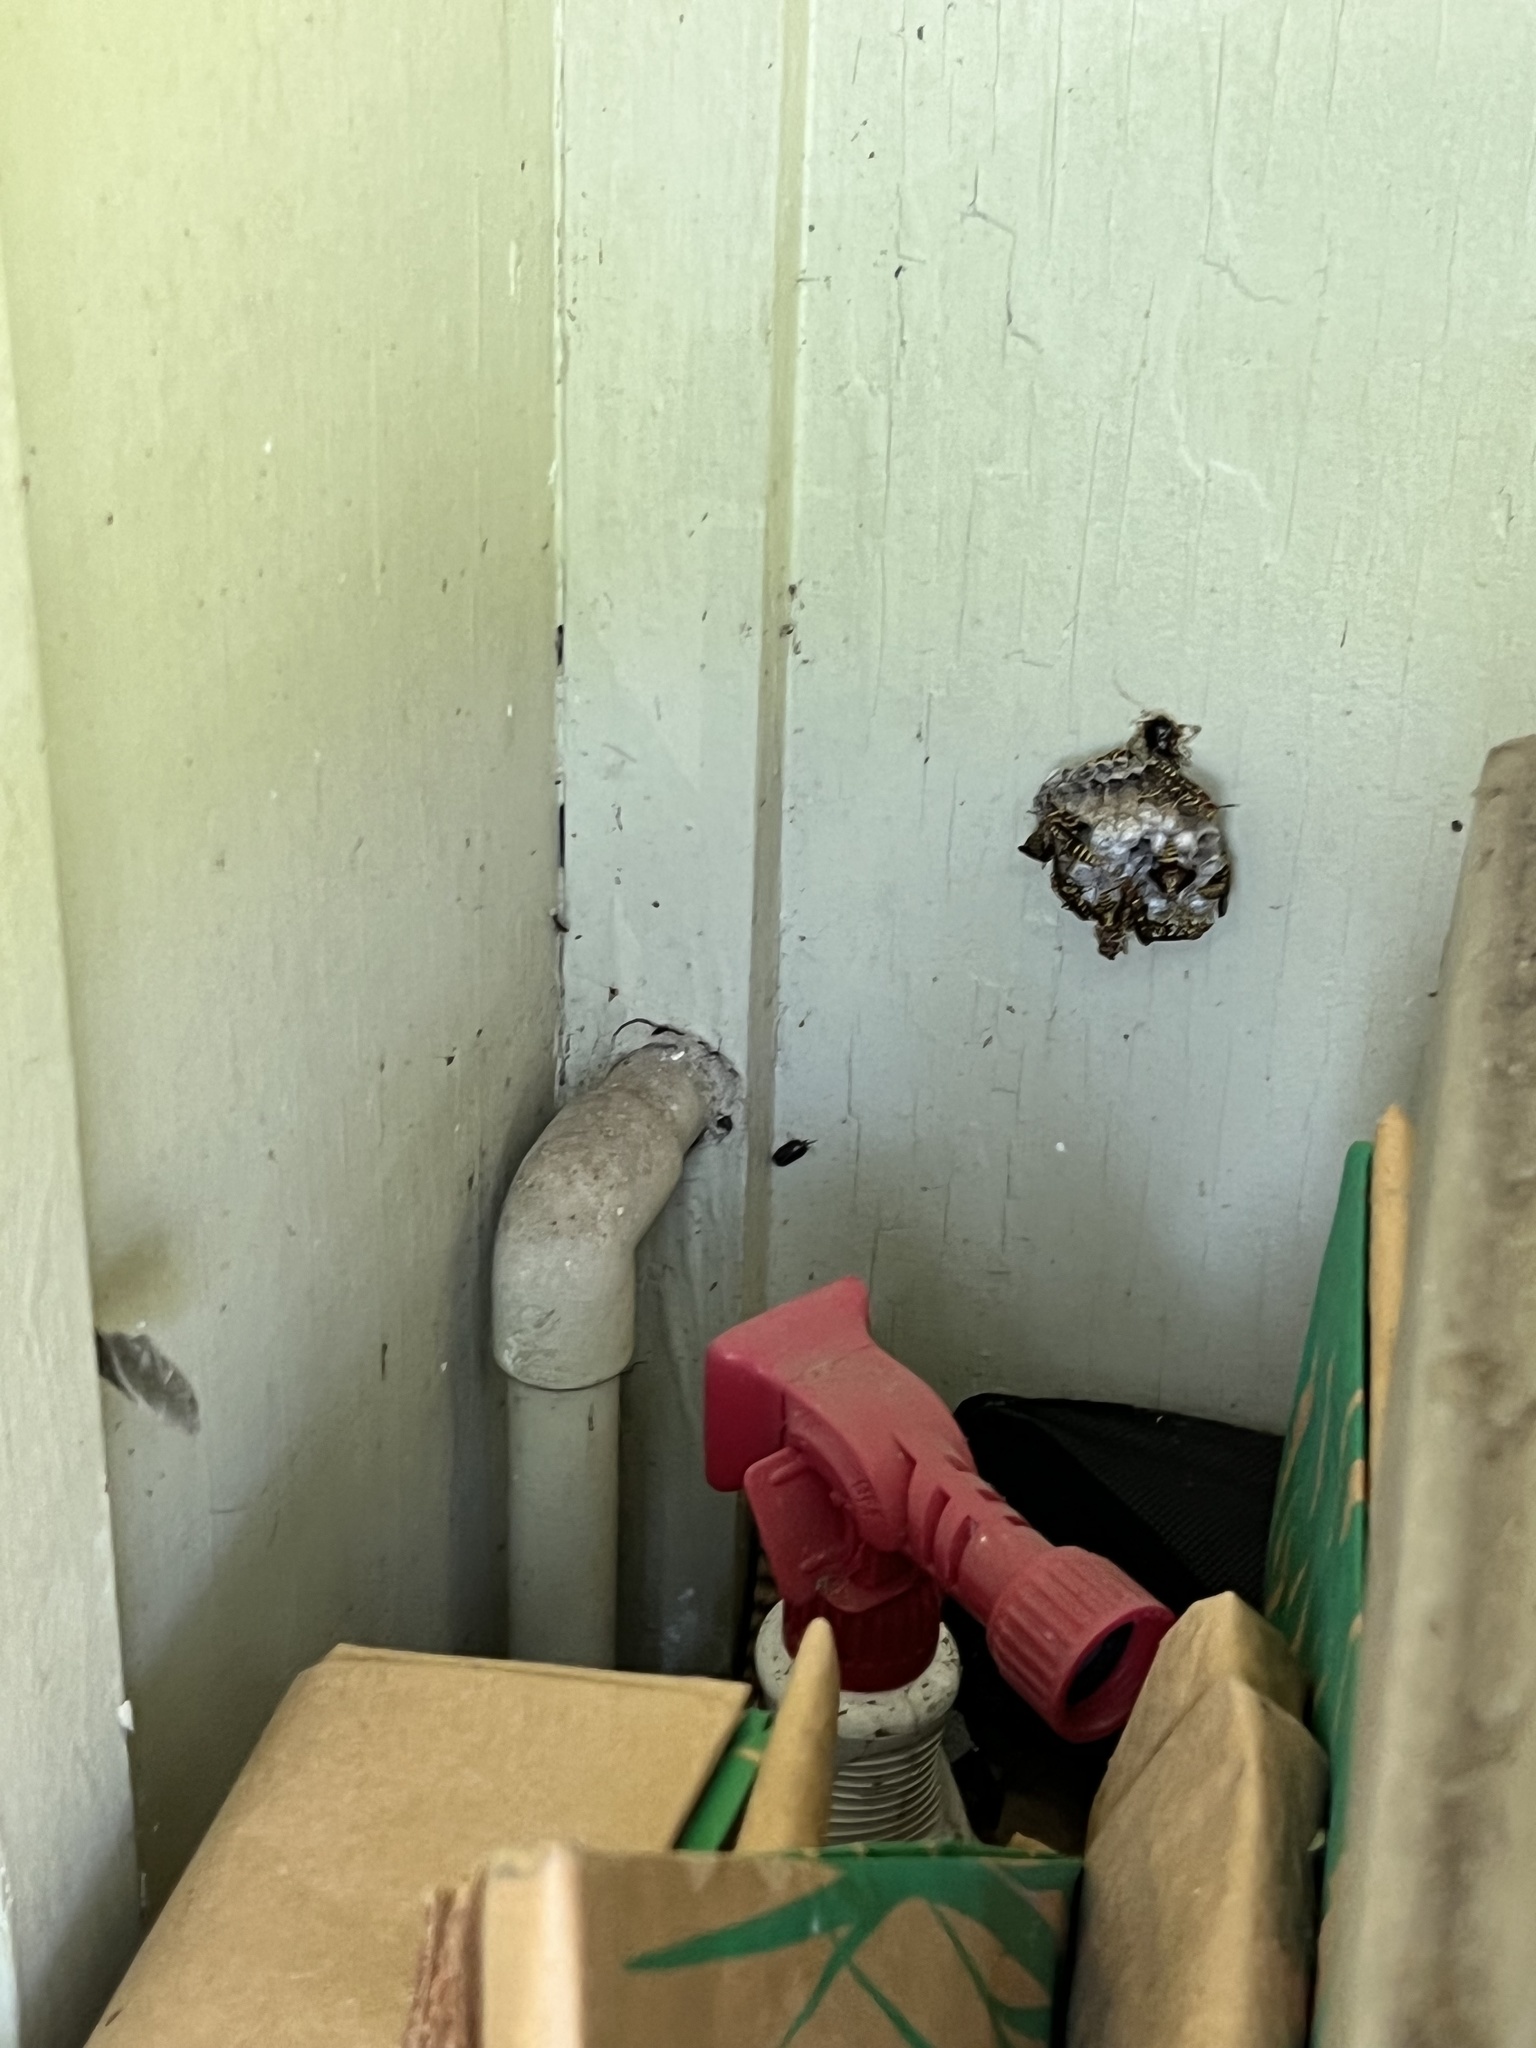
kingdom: Animalia
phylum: Arthropoda
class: Insecta
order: Hymenoptera
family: Eumenidae
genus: Polistes
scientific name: Polistes exclamans
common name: Paper wasp
